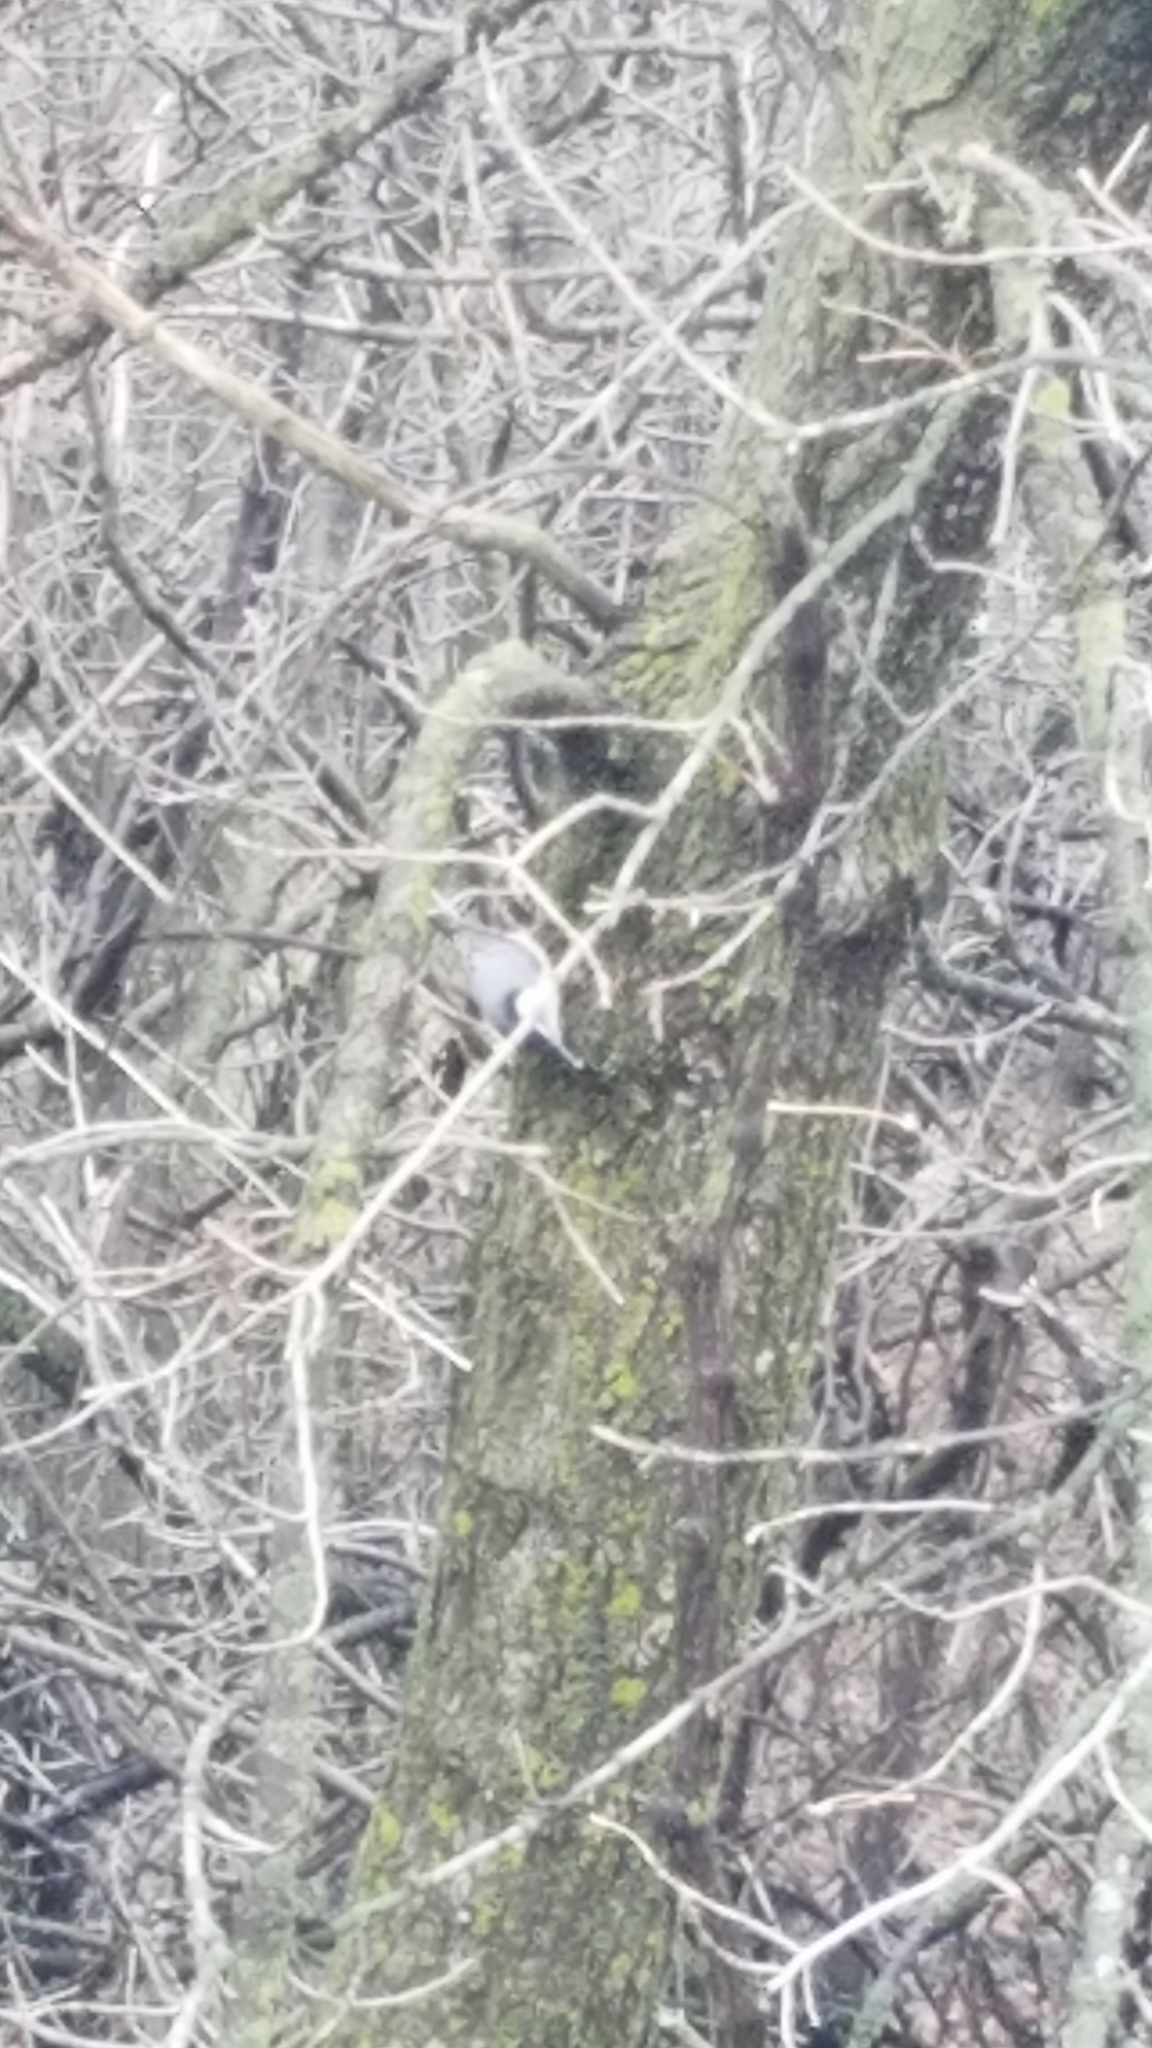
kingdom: Animalia
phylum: Chordata
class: Aves
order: Passeriformes
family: Sittidae
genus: Sitta
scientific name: Sitta carolinensis
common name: White-breasted nuthatch
